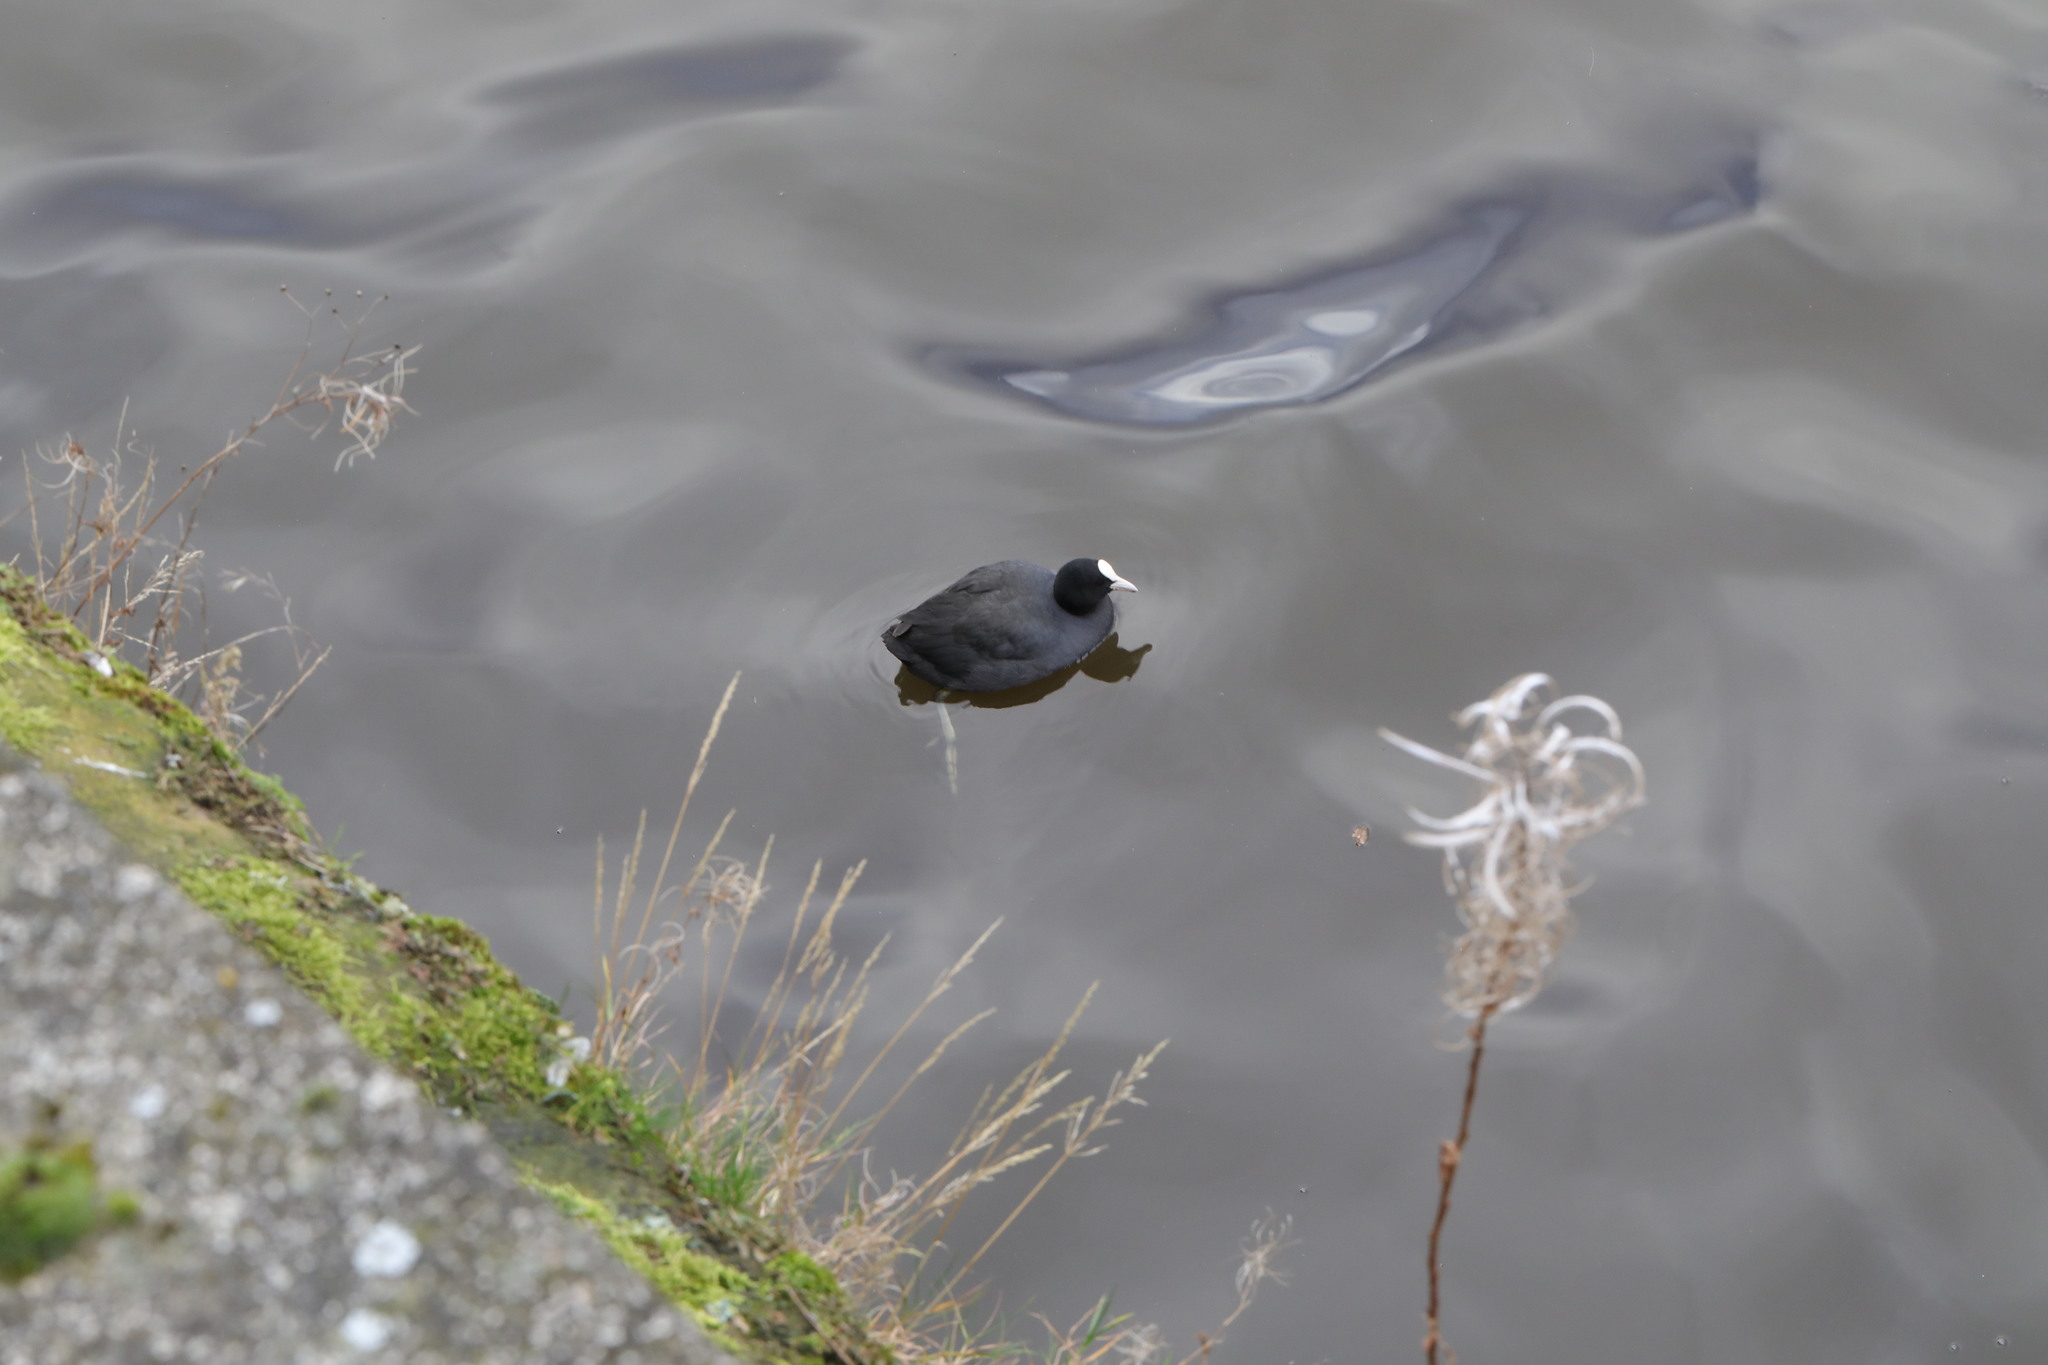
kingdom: Animalia
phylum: Chordata
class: Aves
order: Gruiformes
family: Rallidae
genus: Fulica
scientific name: Fulica atra
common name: Eurasian coot
